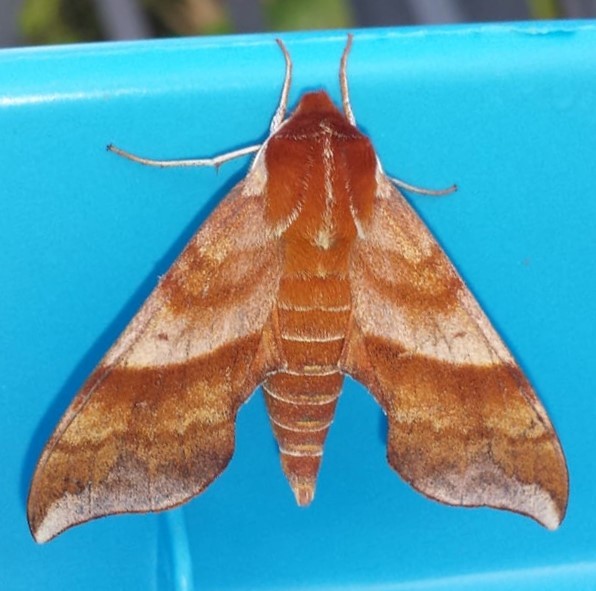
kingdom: Animalia
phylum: Arthropoda
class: Insecta
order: Lepidoptera
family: Sphingidae
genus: Darapsa
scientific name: Darapsa choerilus
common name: Azalea sphinx
